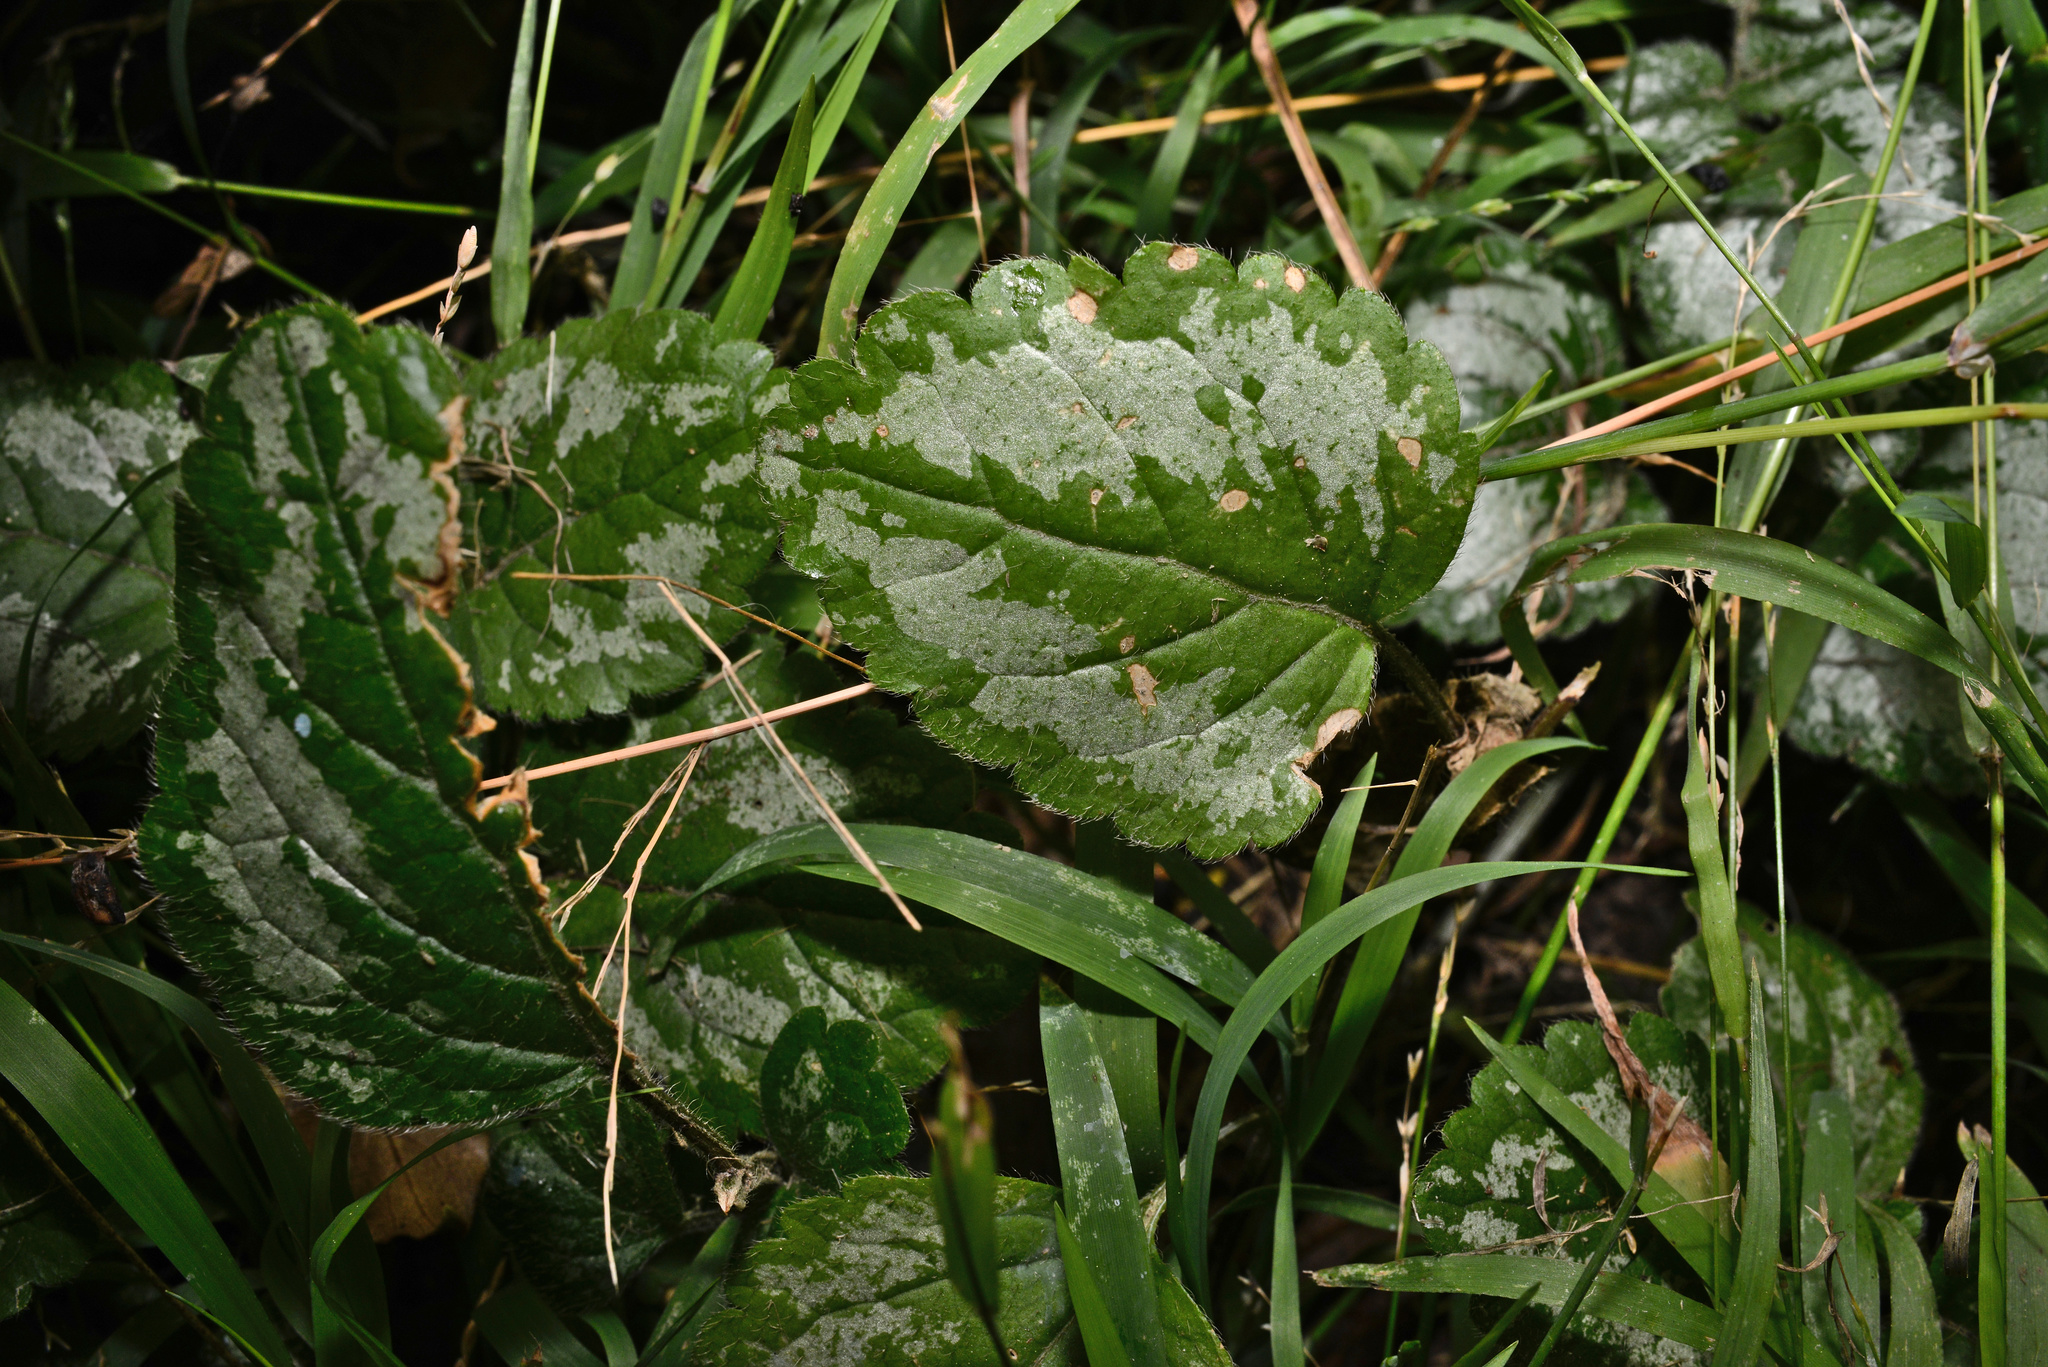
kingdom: Plantae
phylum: Tracheophyta
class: Magnoliopsida
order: Lamiales
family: Lamiaceae
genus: Lamium
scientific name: Lamium galeobdolon
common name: Yellow archangel
